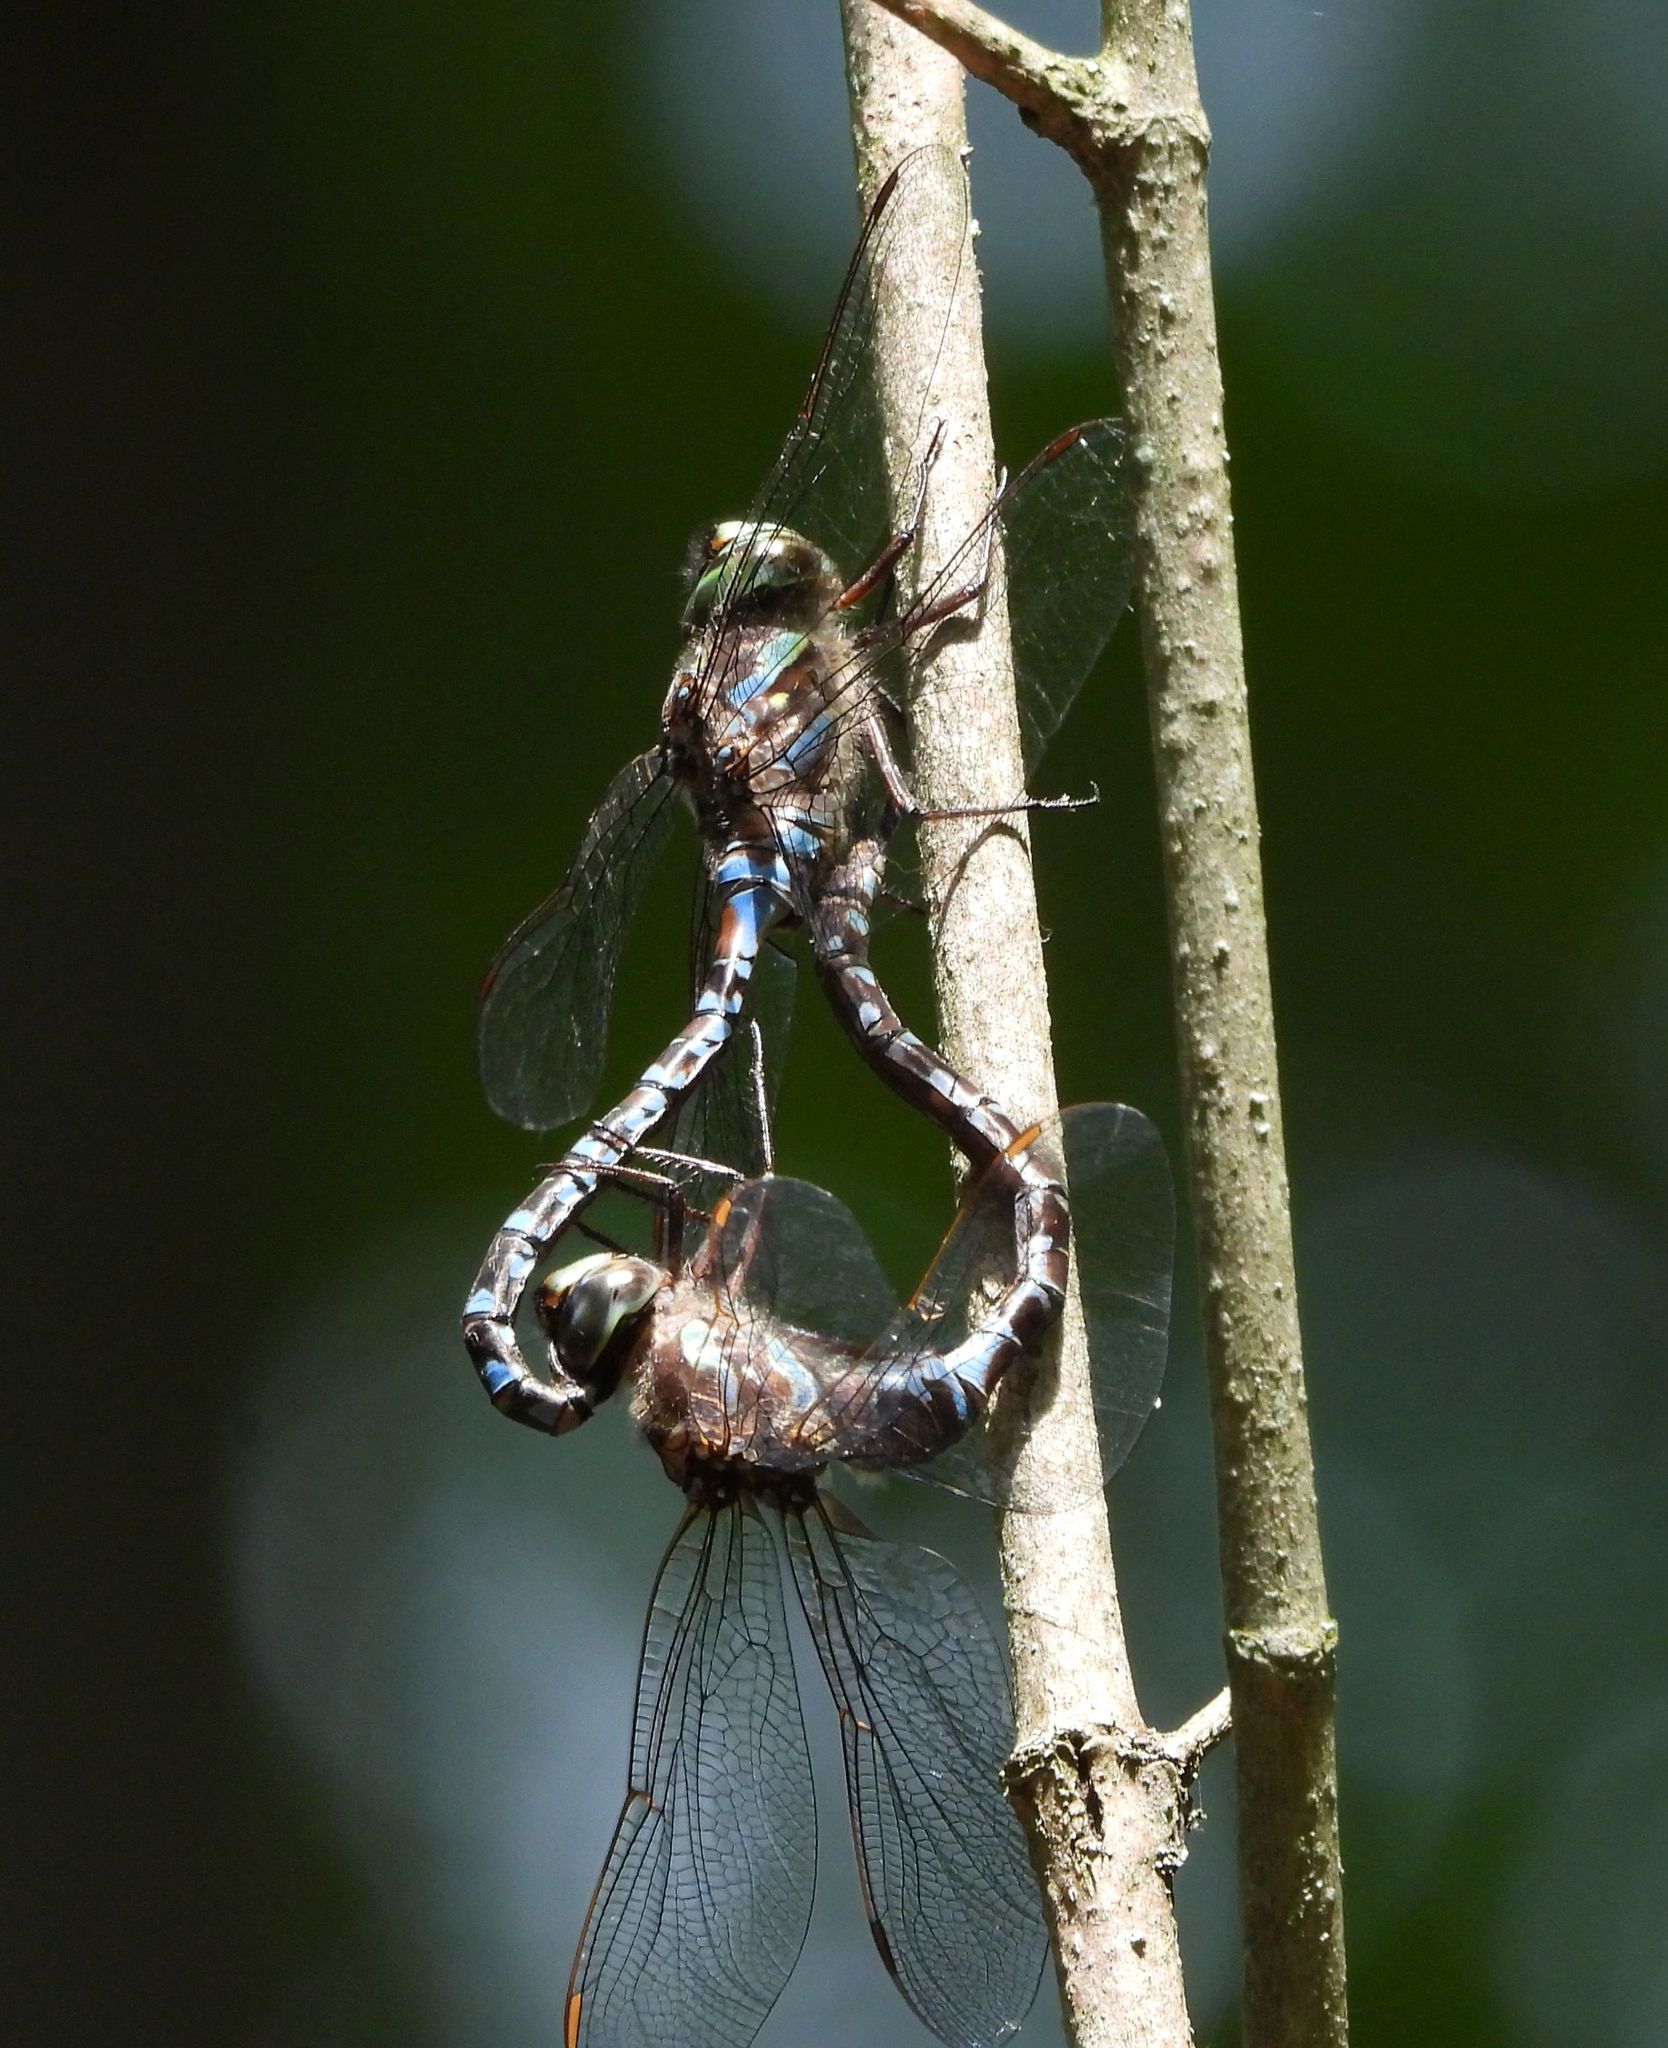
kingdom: Animalia
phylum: Arthropoda
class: Insecta
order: Odonata
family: Aeshnidae
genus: Aeshna
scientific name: Aeshna canadensis
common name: Canada darner
